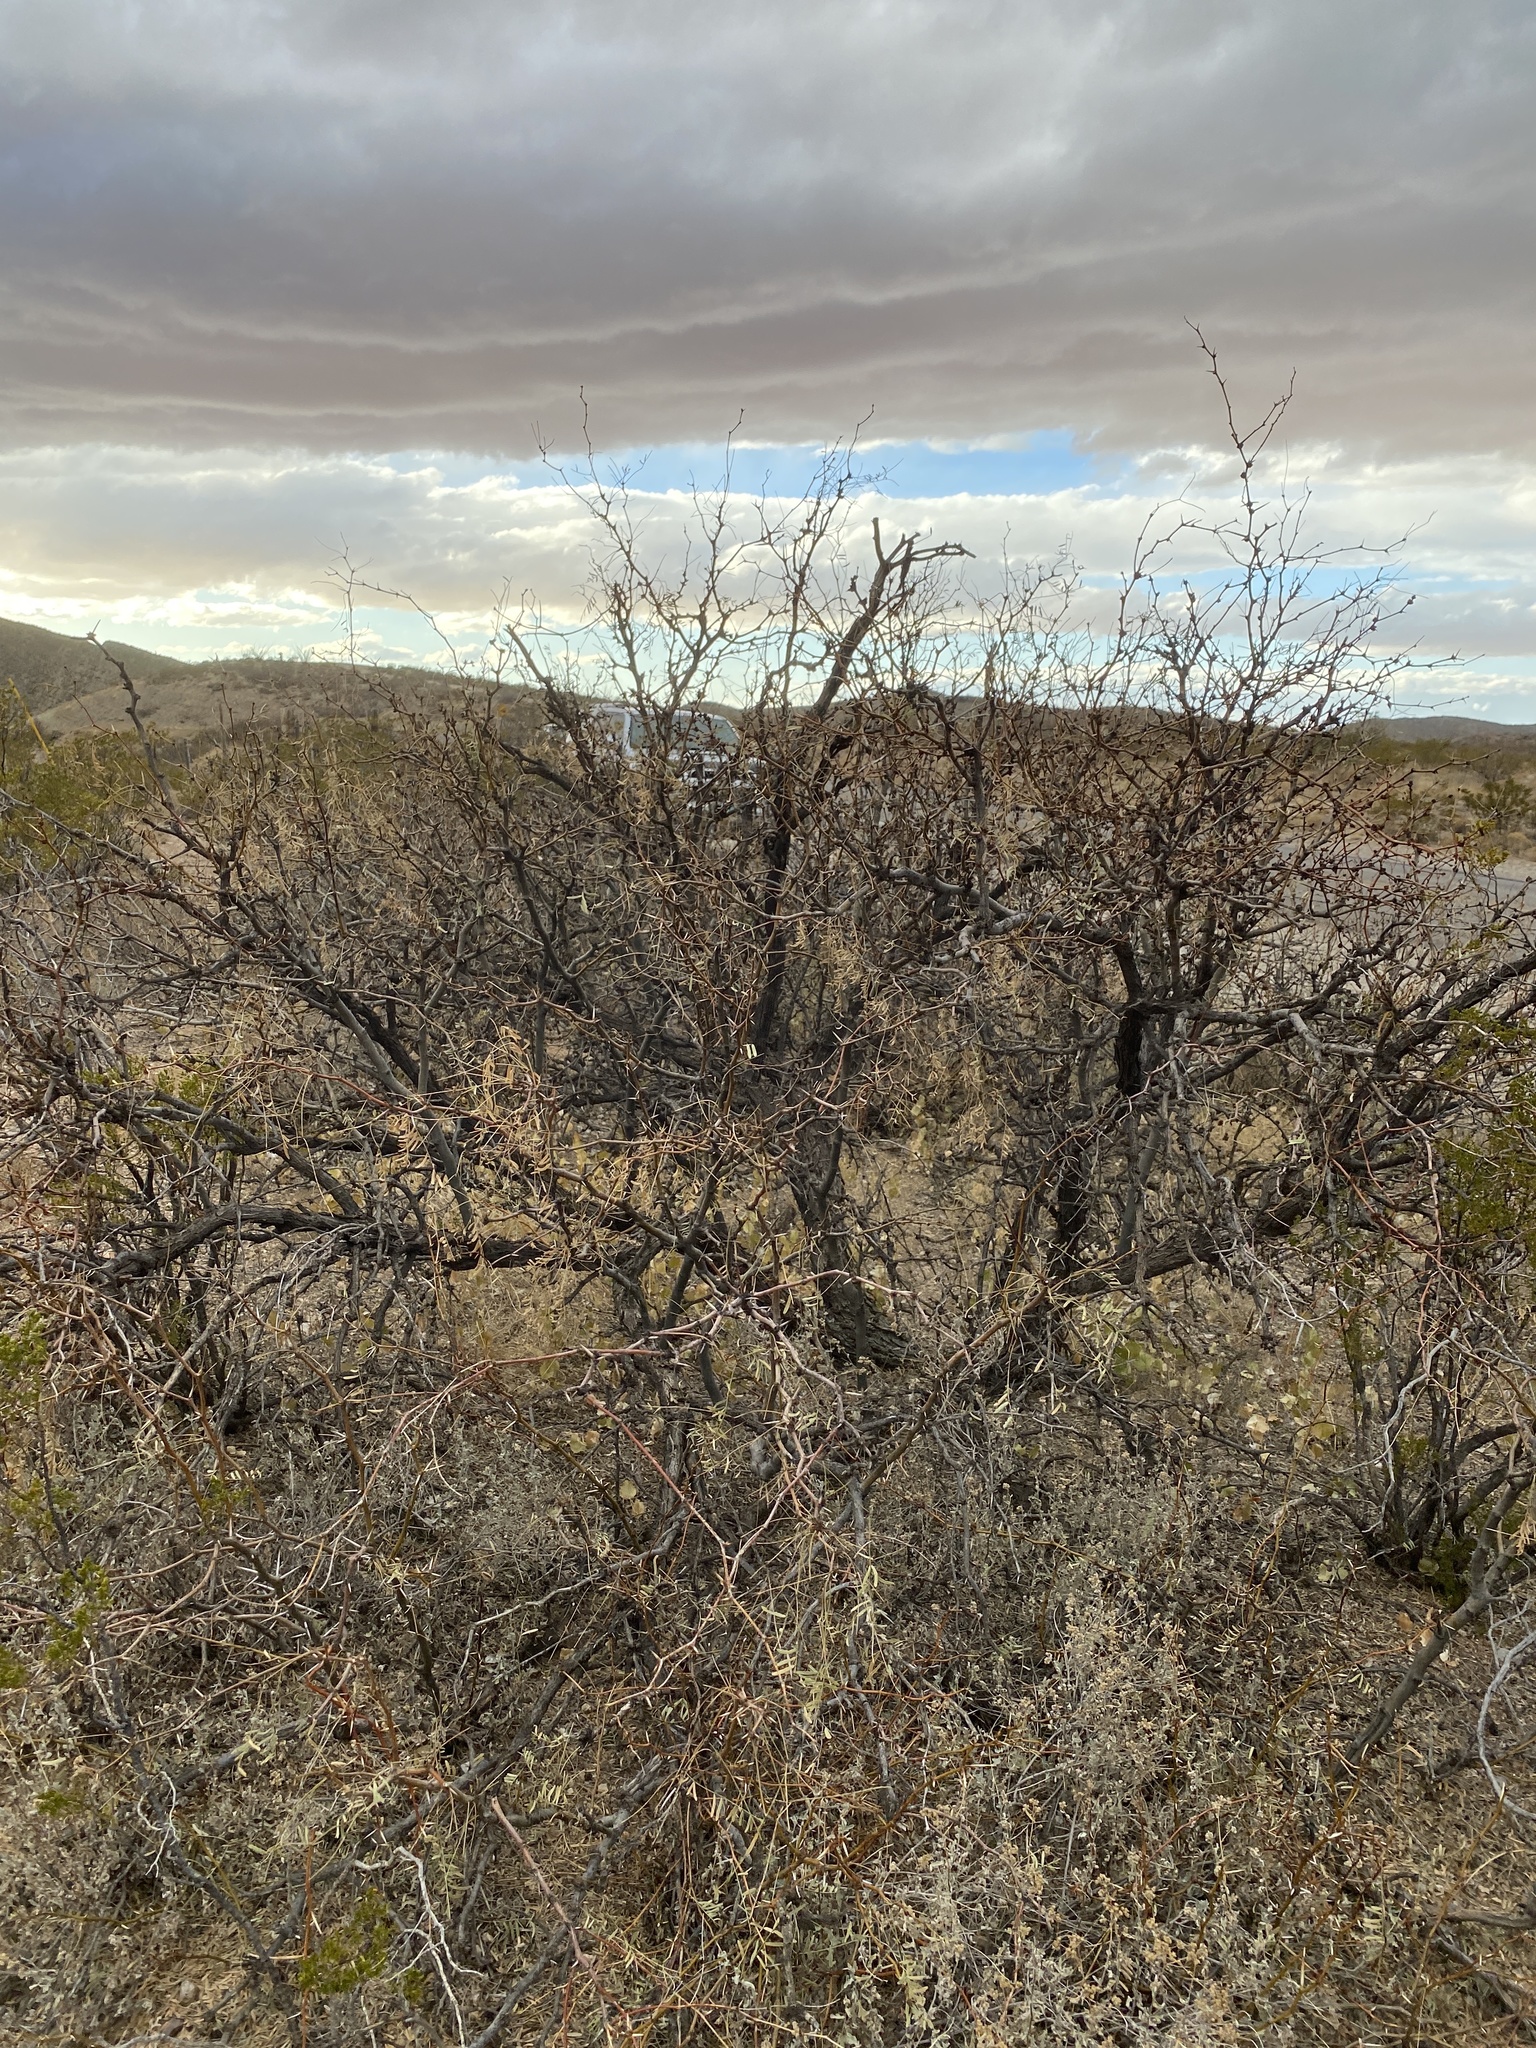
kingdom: Plantae
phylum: Tracheophyta
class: Magnoliopsida
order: Fabales
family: Fabaceae
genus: Prosopis
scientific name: Prosopis glandulosa
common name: Honey mesquite
